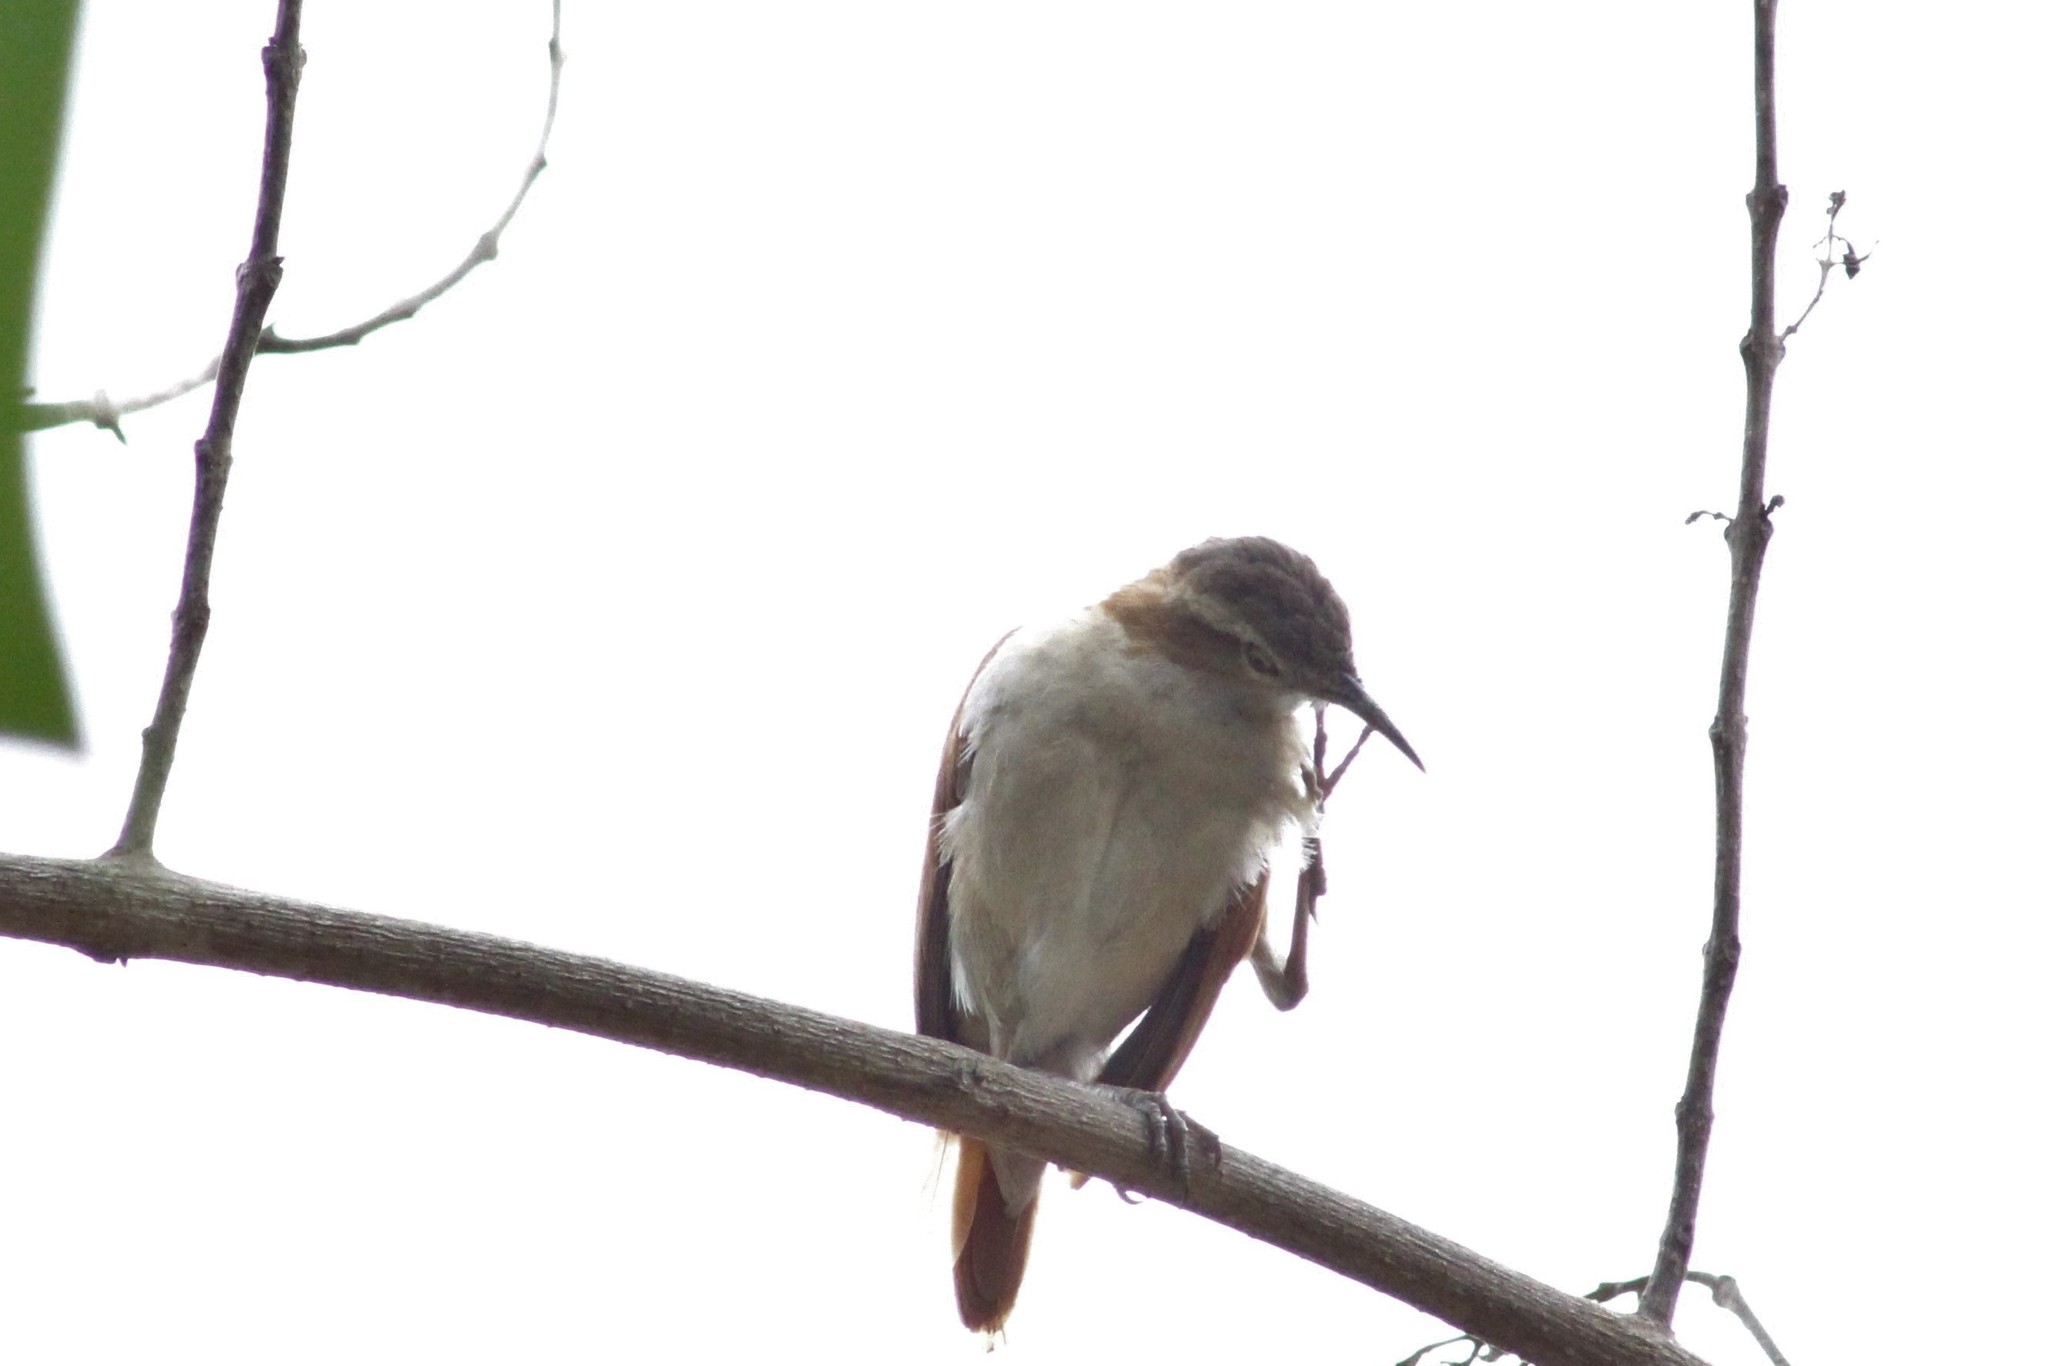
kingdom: Animalia
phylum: Chordata
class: Aves
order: Passeriformes
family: Furnariidae
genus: Furnarius
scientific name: Furnarius leucopus
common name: Pale-legged hornero
